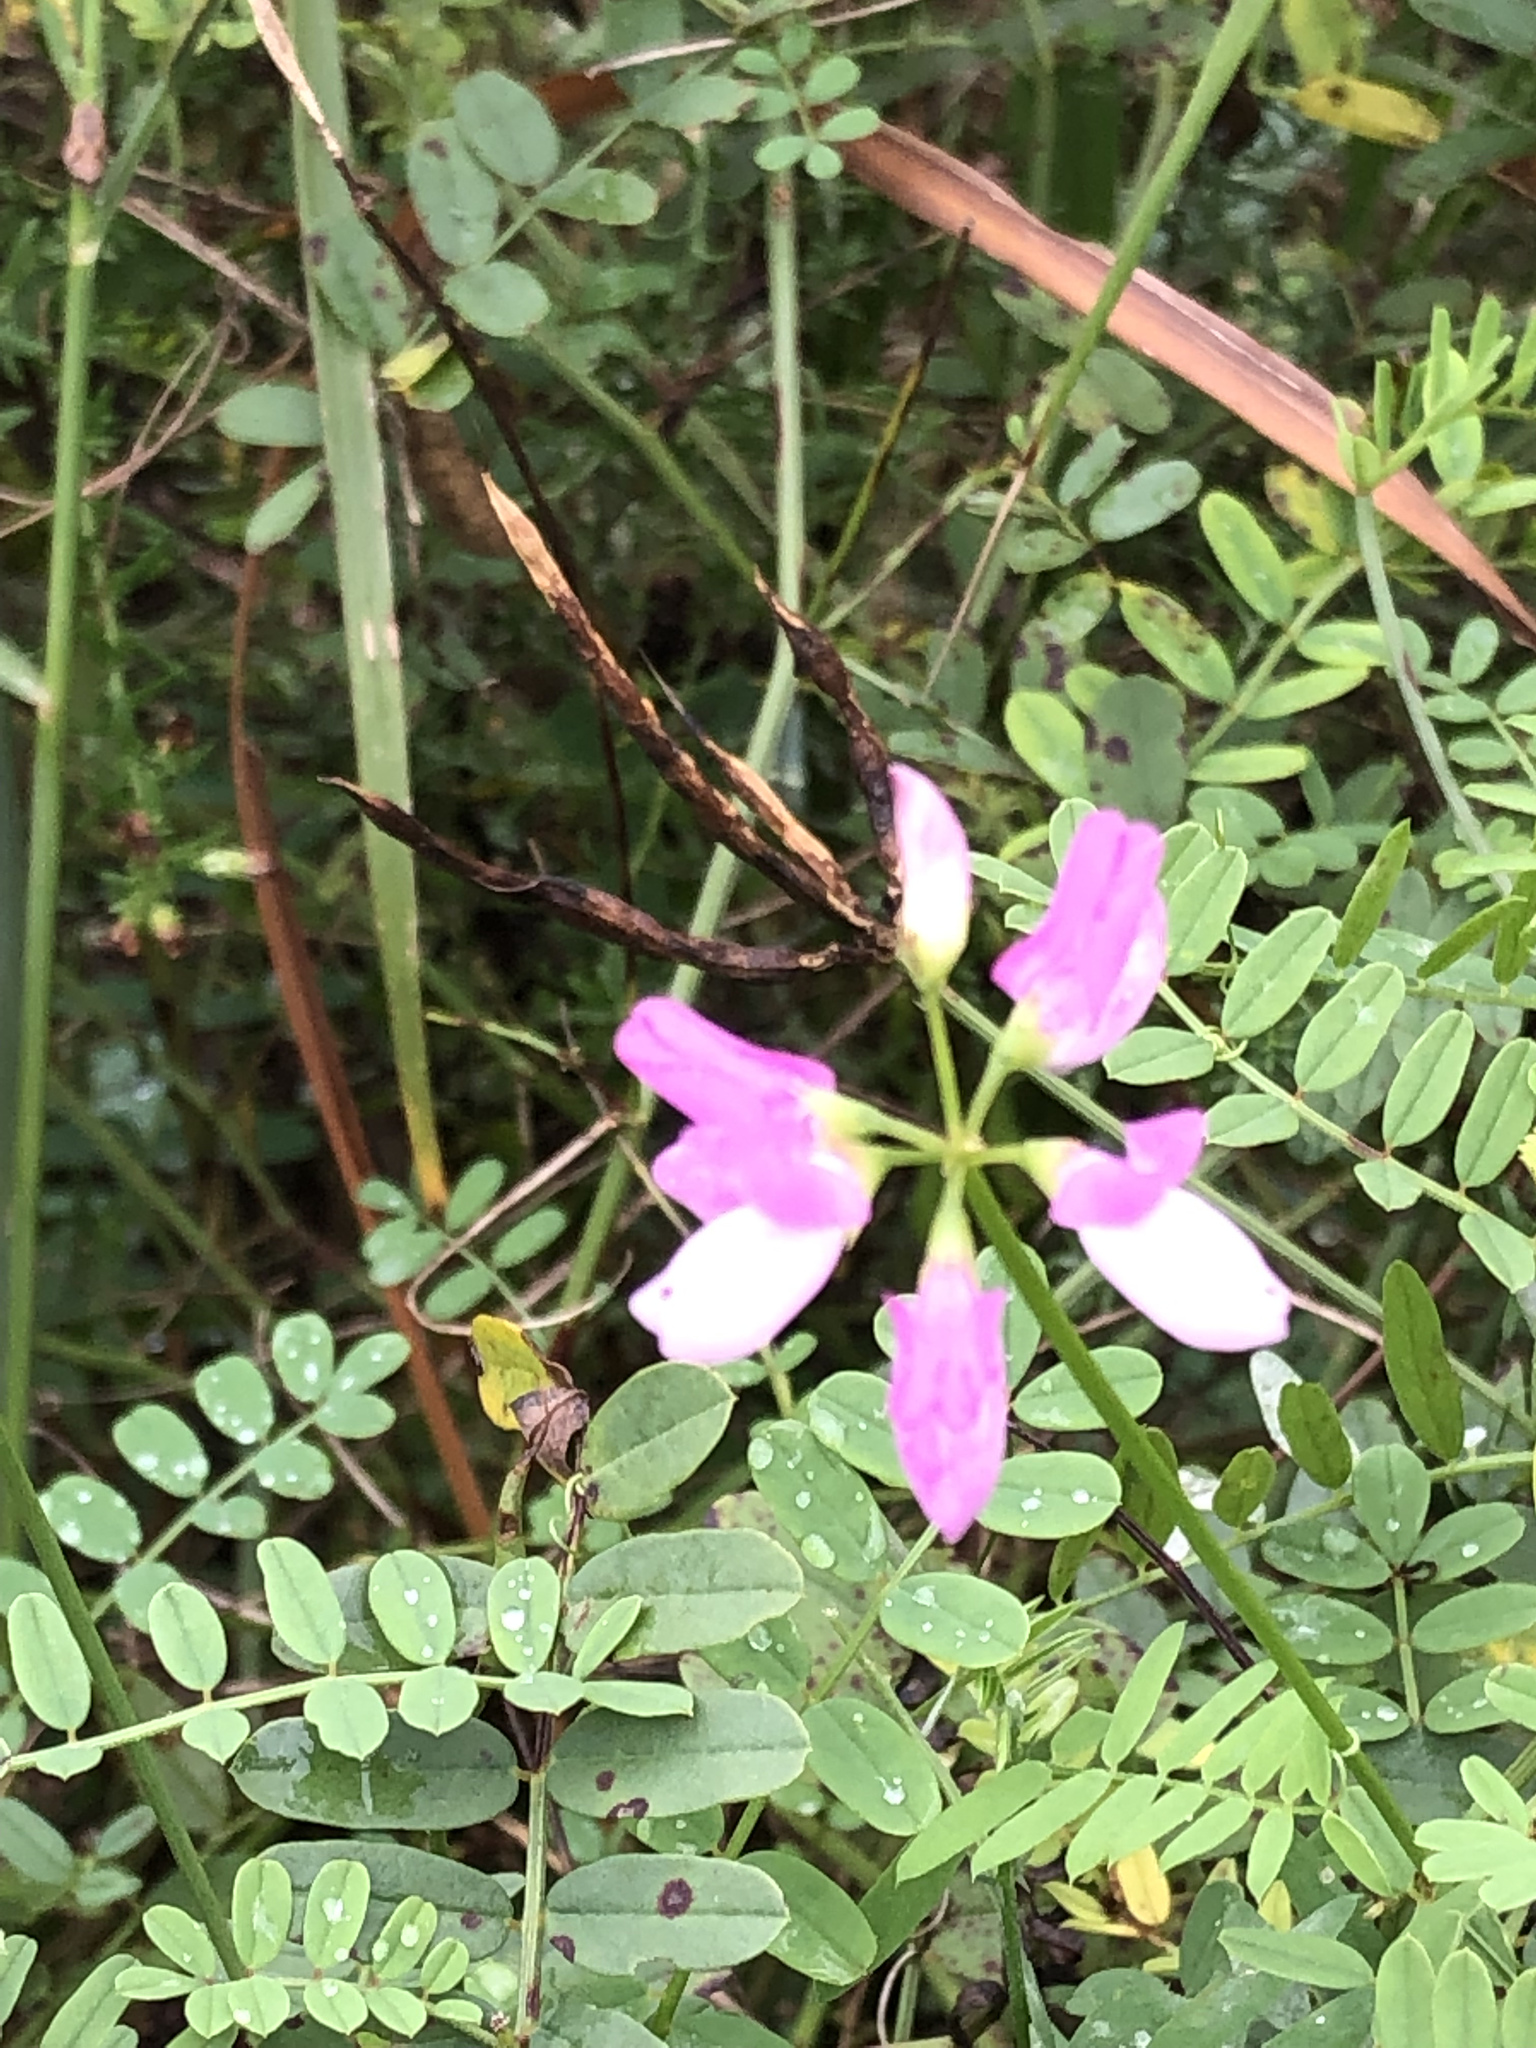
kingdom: Plantae
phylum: Tracheophyta
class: Magnoliopsida
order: Fabales
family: Fabaceae
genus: Coronilla
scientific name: Coronilla varia
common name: Crownvetch
